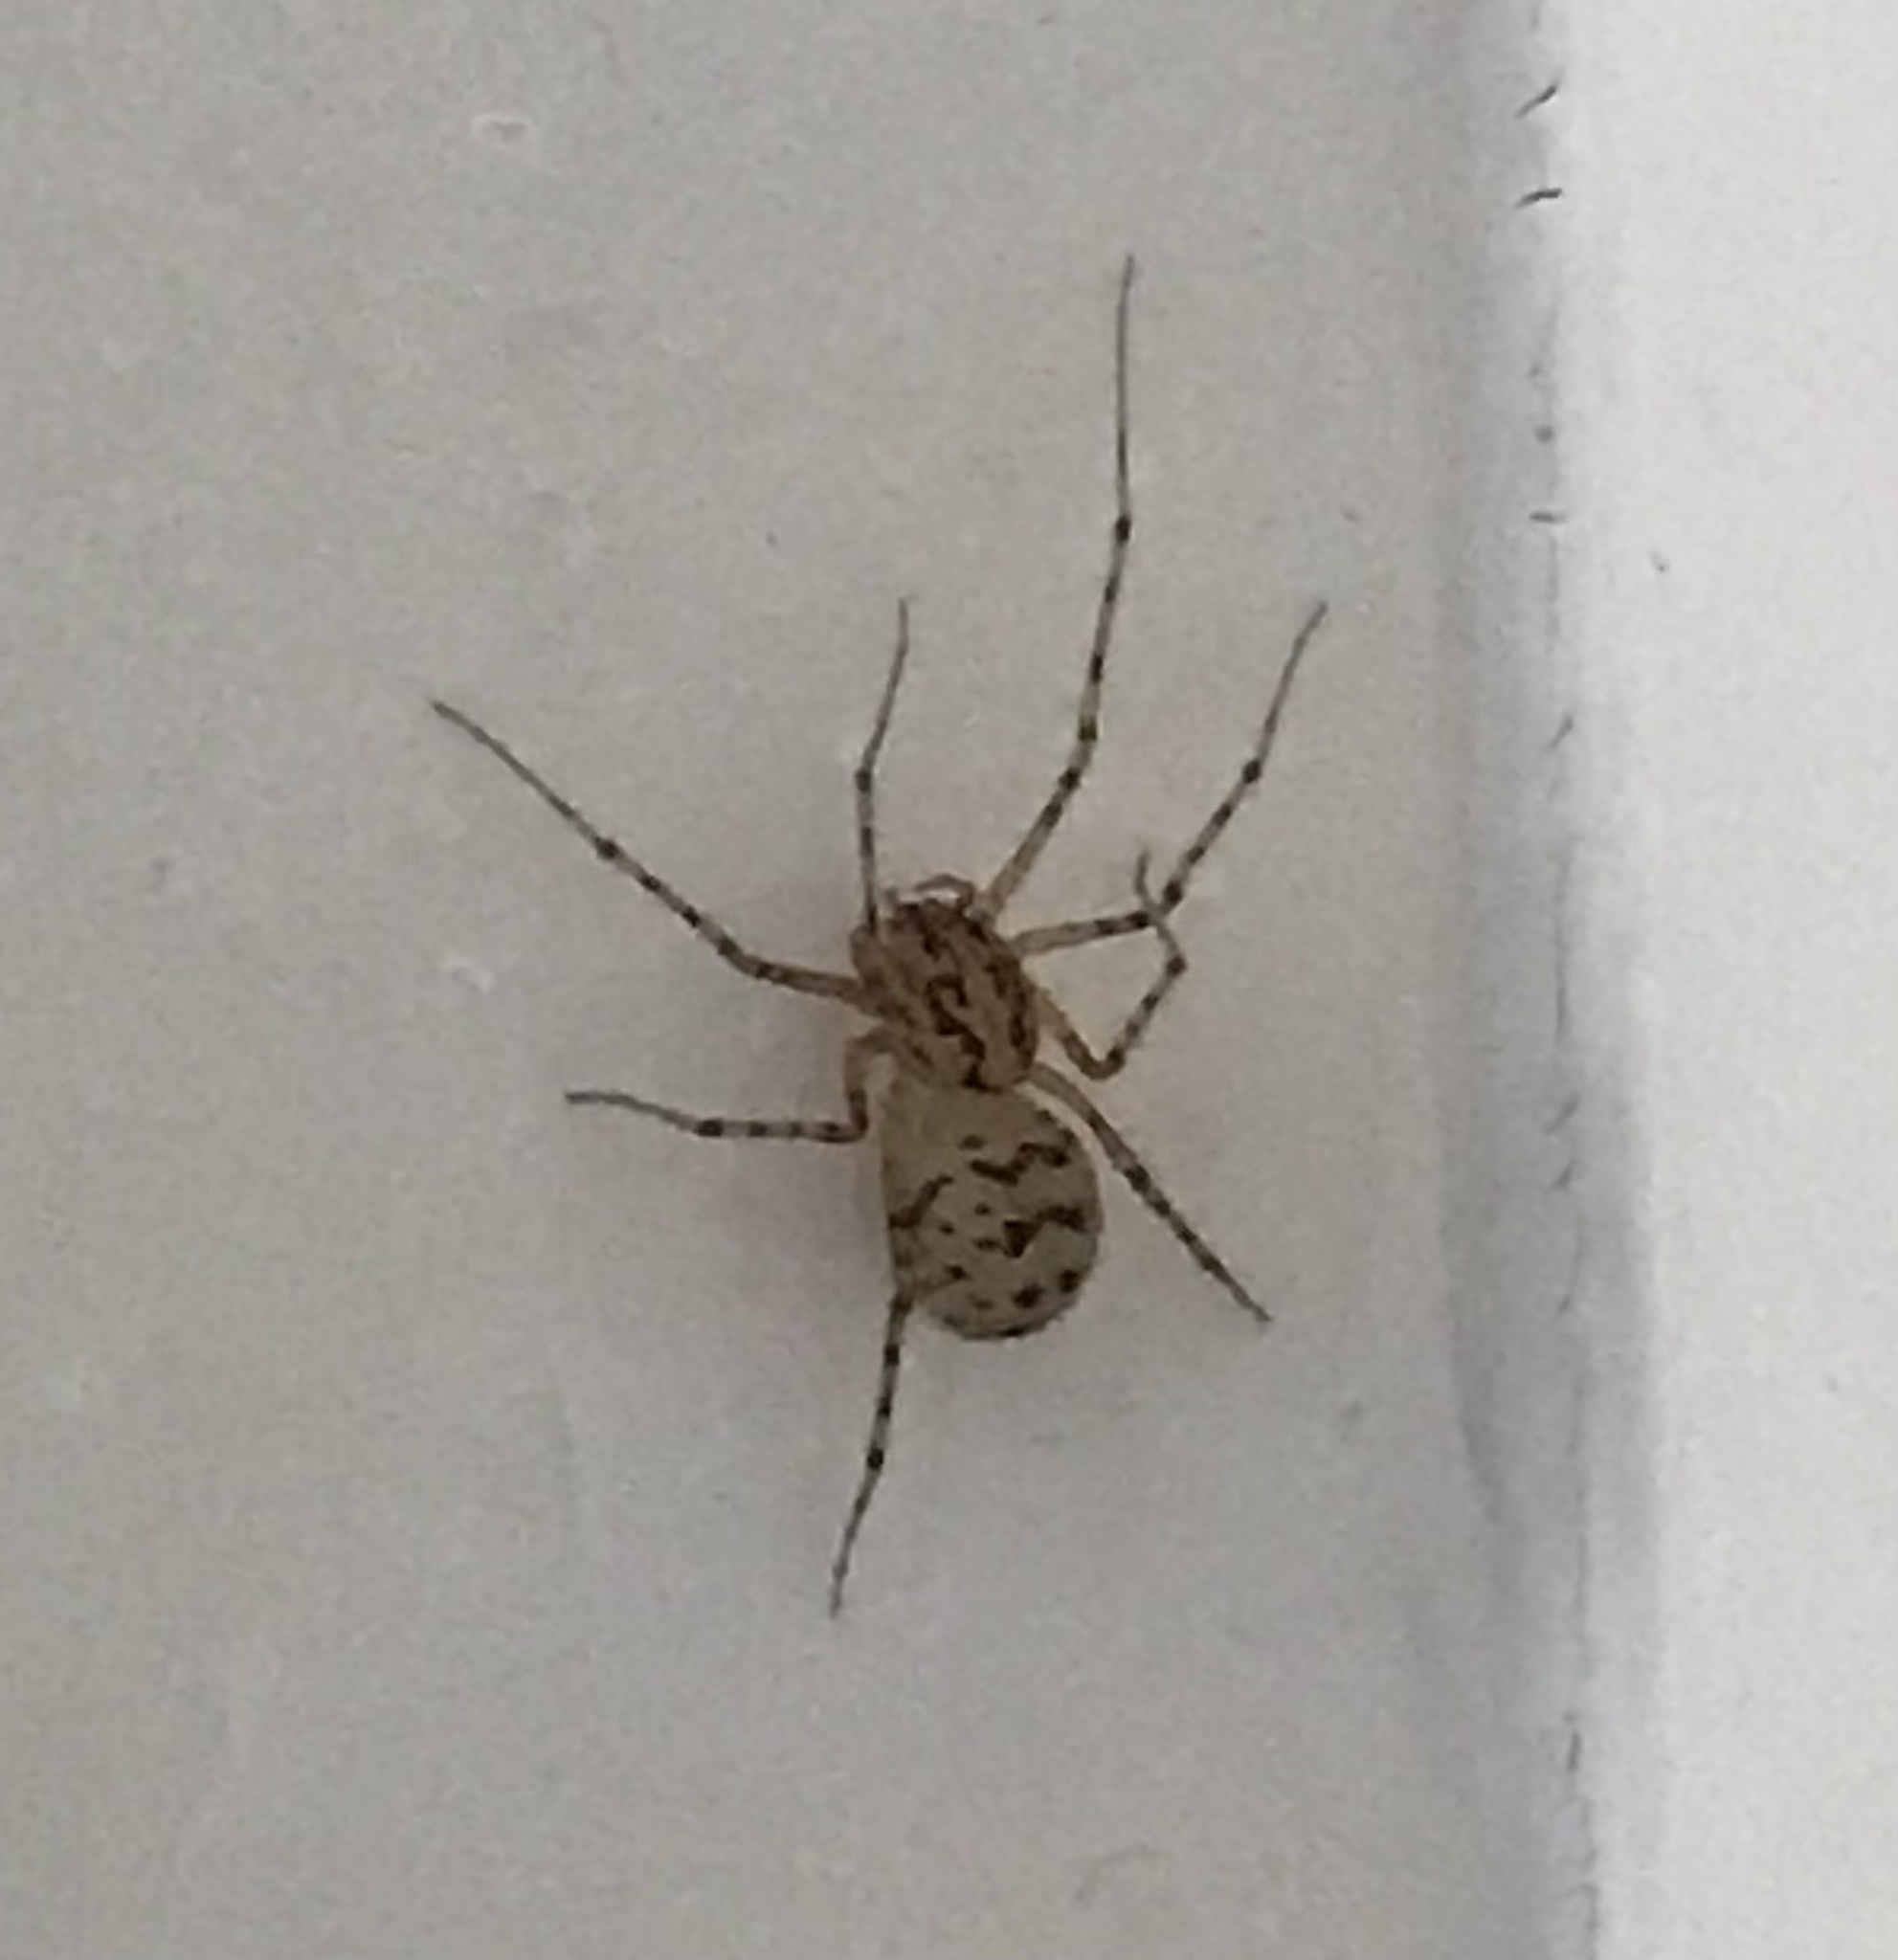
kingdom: Animalia
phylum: Arthropoda
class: Arachnida
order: Araneae
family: Scytodidae
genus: Scytodes
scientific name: Scytodes thoracica
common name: Spitting spider
